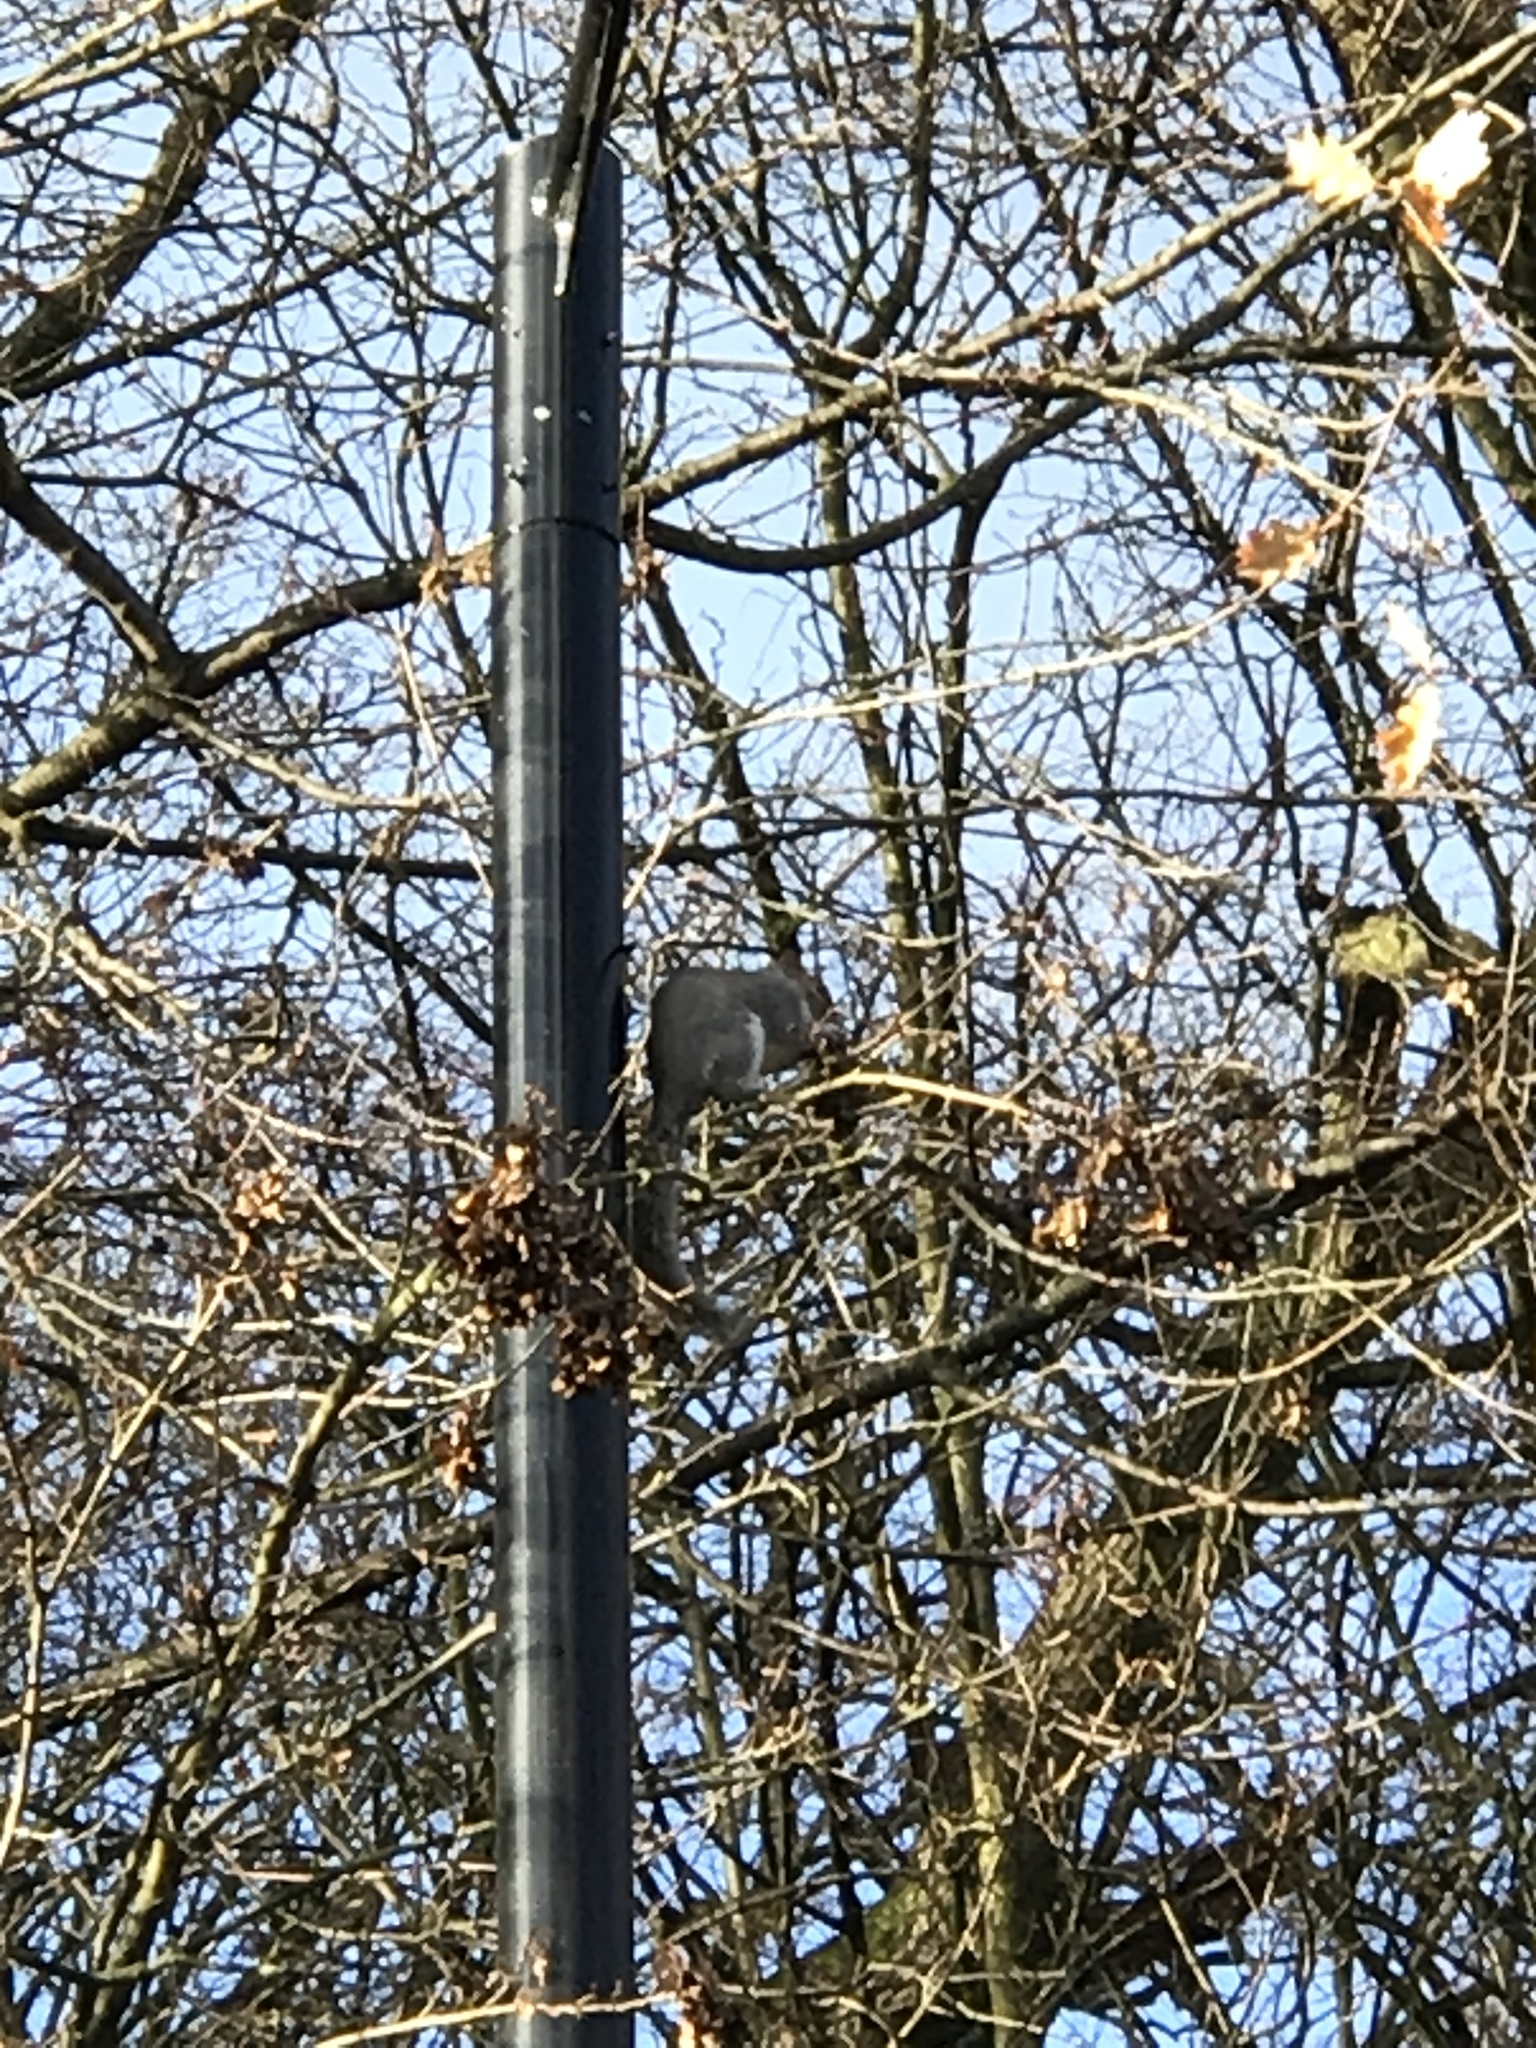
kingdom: Animalia
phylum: Chordata
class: Mammalia
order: Rodentia
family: Sciuridae
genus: Sciurus
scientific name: Sciurus carolinensis
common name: Eastern gray squirrel
